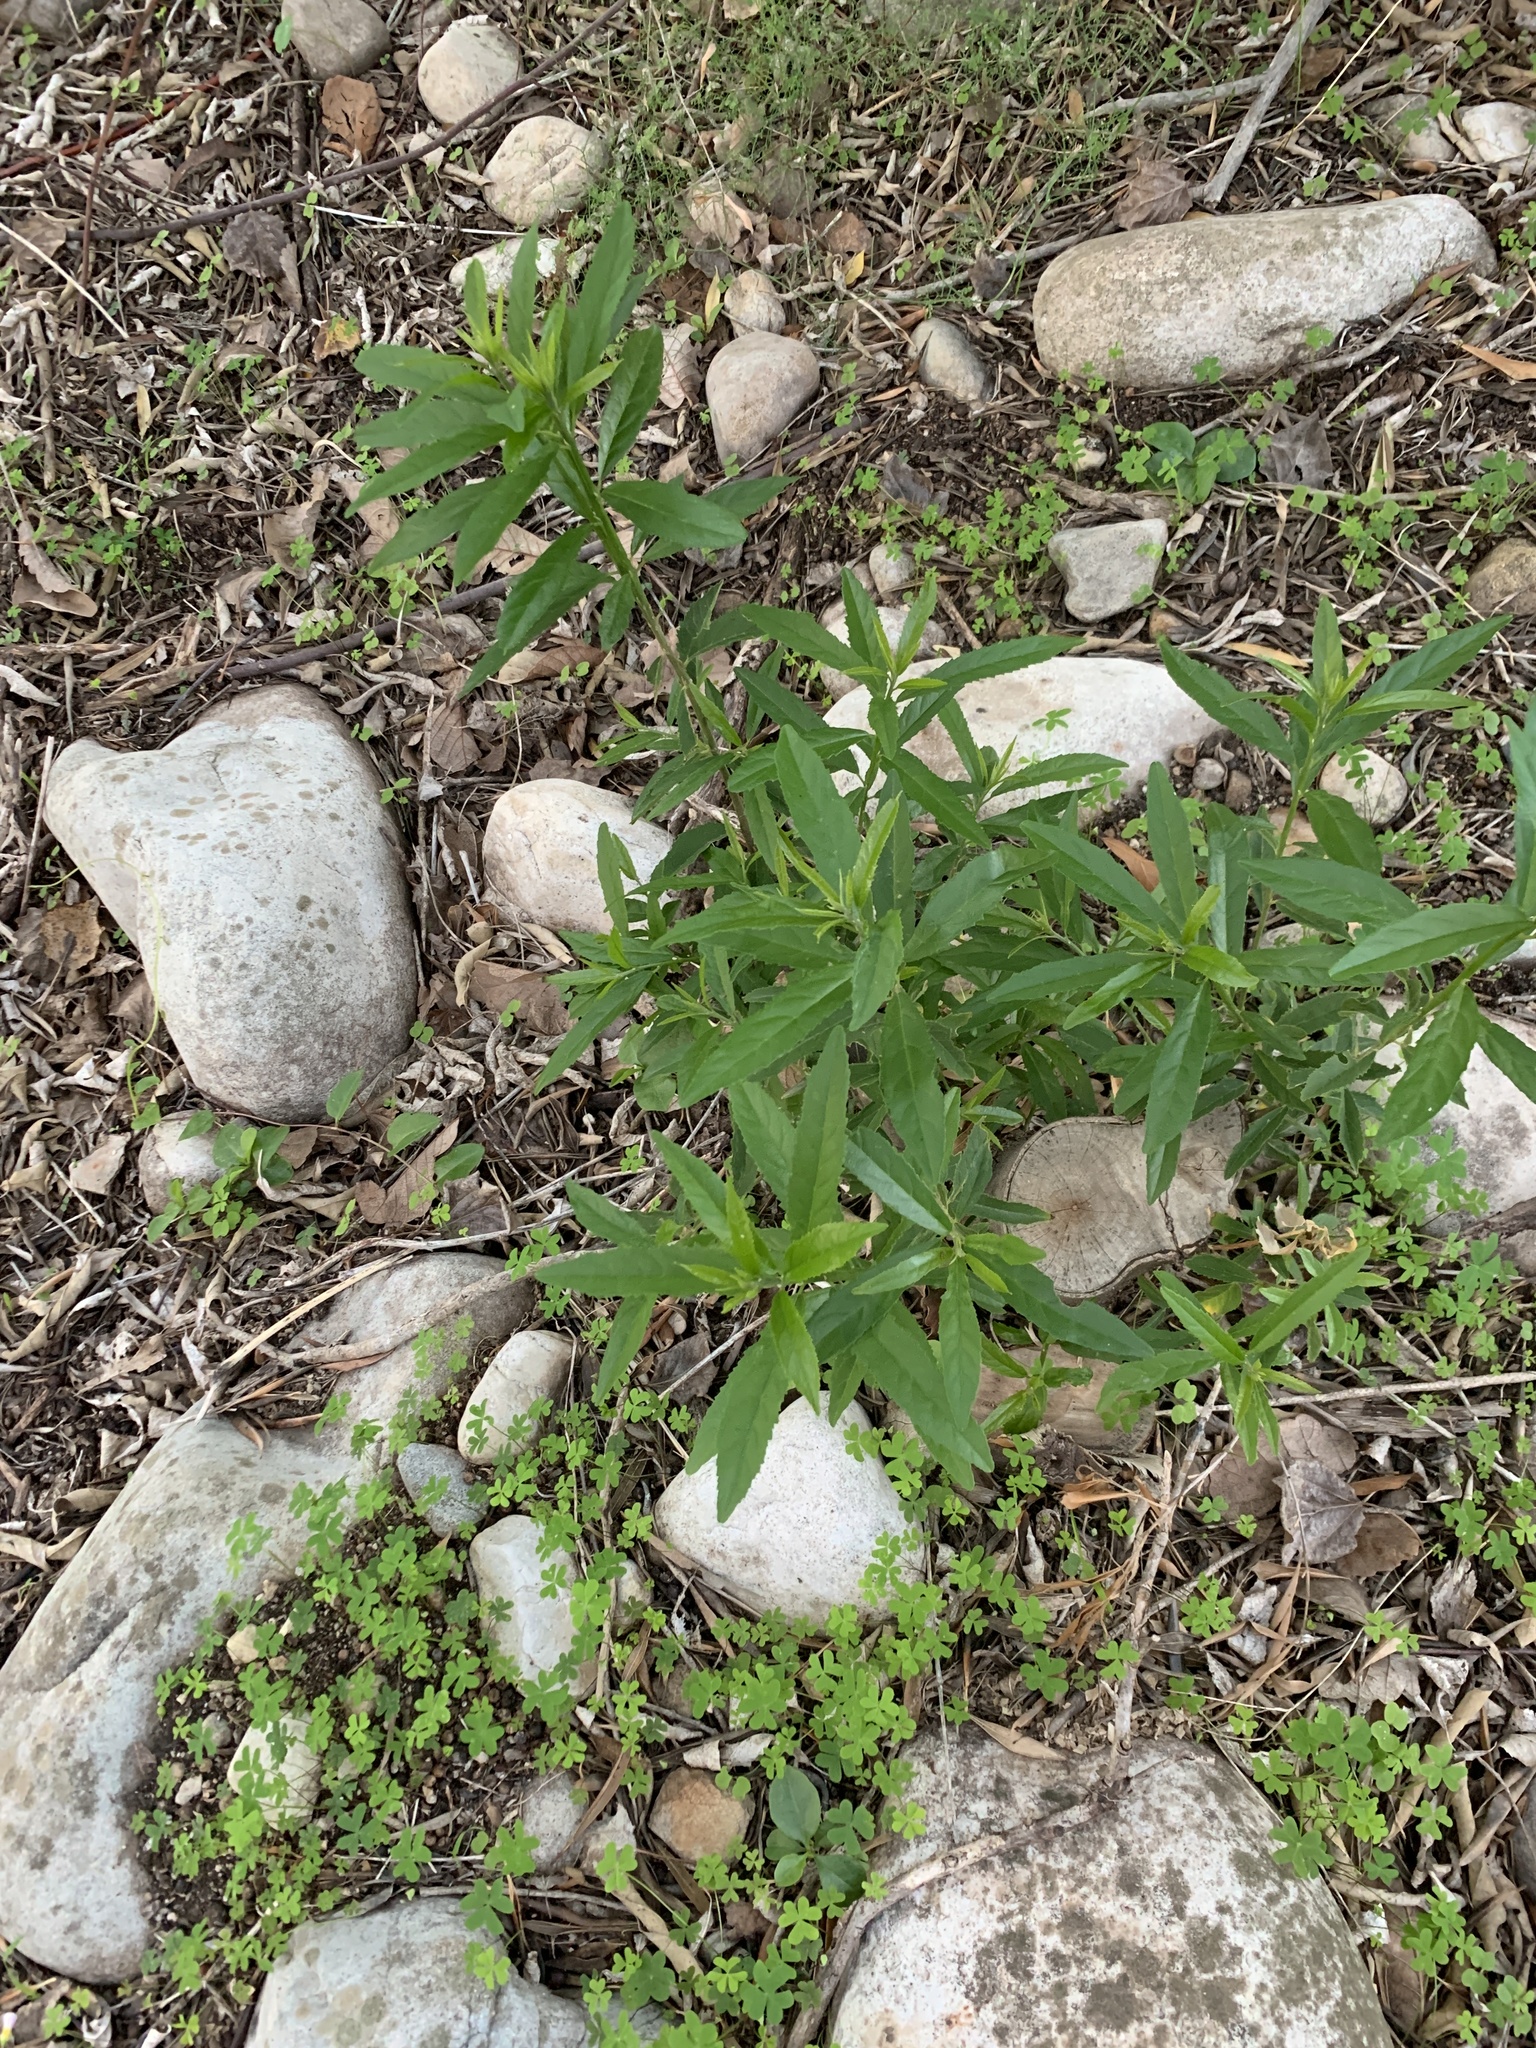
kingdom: Plantae
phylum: Tracheophyta
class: Magnoliopsida
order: Malpighiales
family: Achariaceae
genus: Kiggelaria
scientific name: Kiggelaria africana
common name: Wild peach
